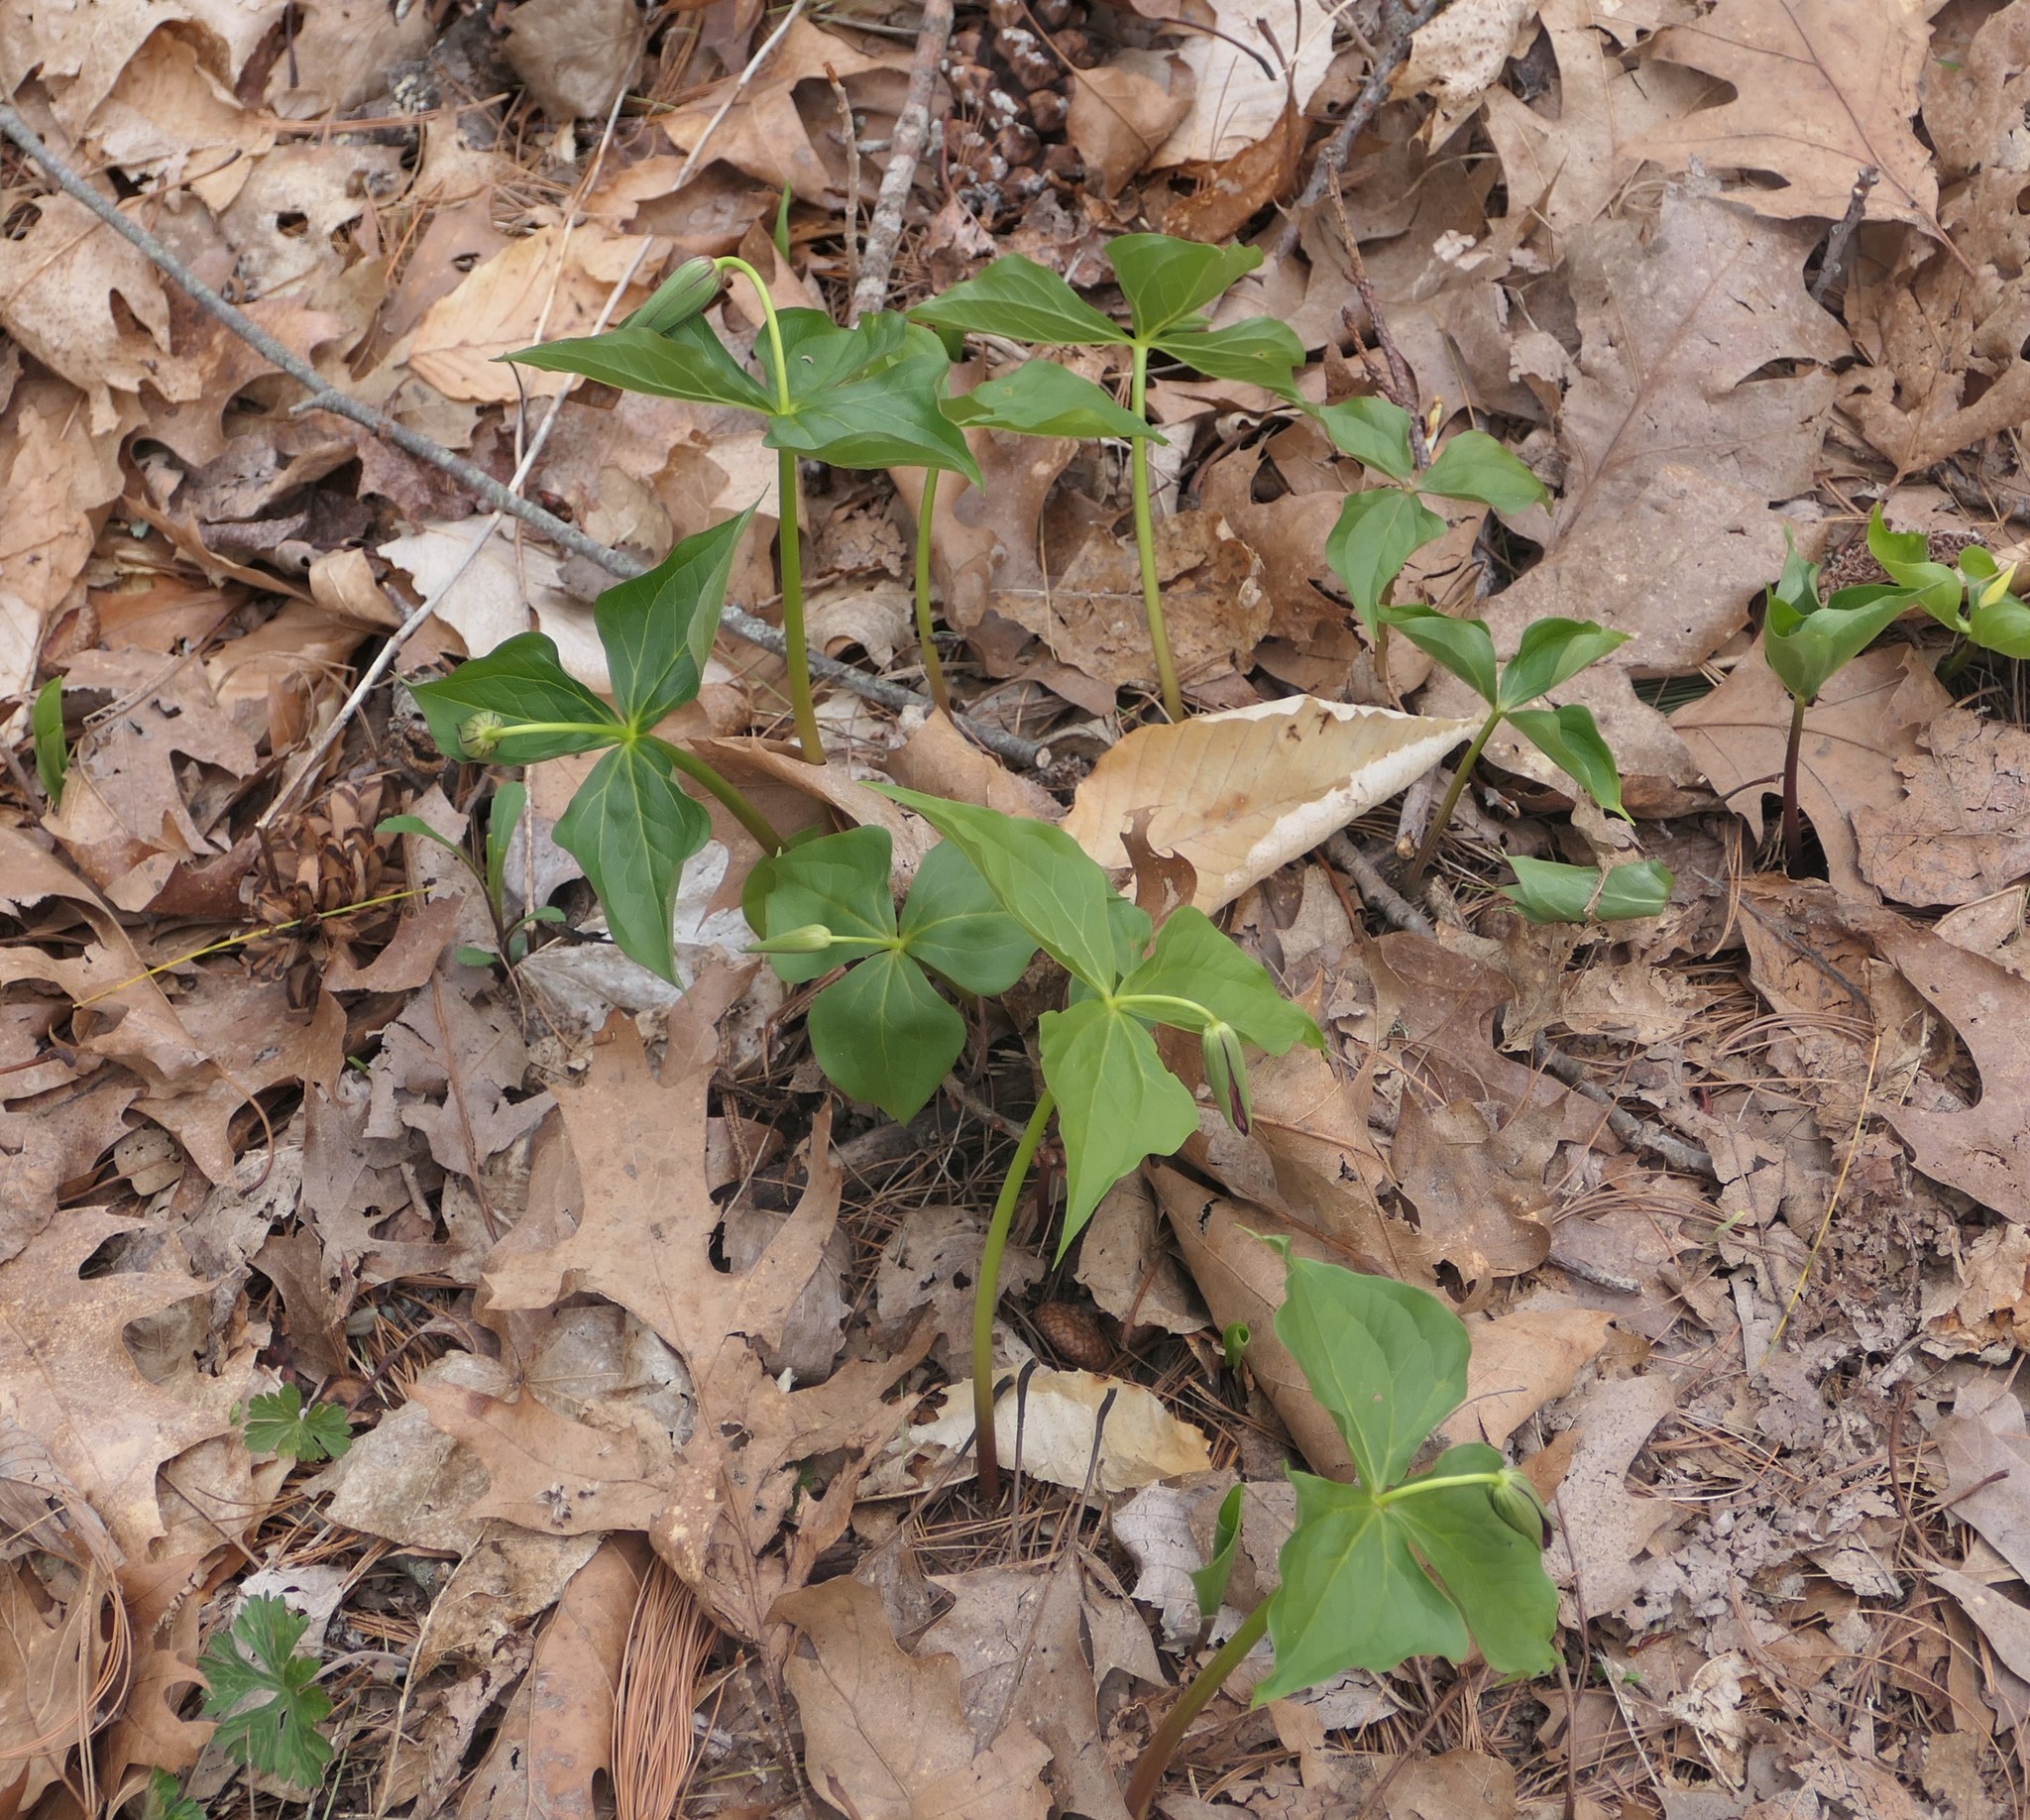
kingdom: Plantae
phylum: Tracheophyta
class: Liliopsida
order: Liliales
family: Melanthiaceae
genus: Trillium
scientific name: Trillium erectum
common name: Purple trillium
